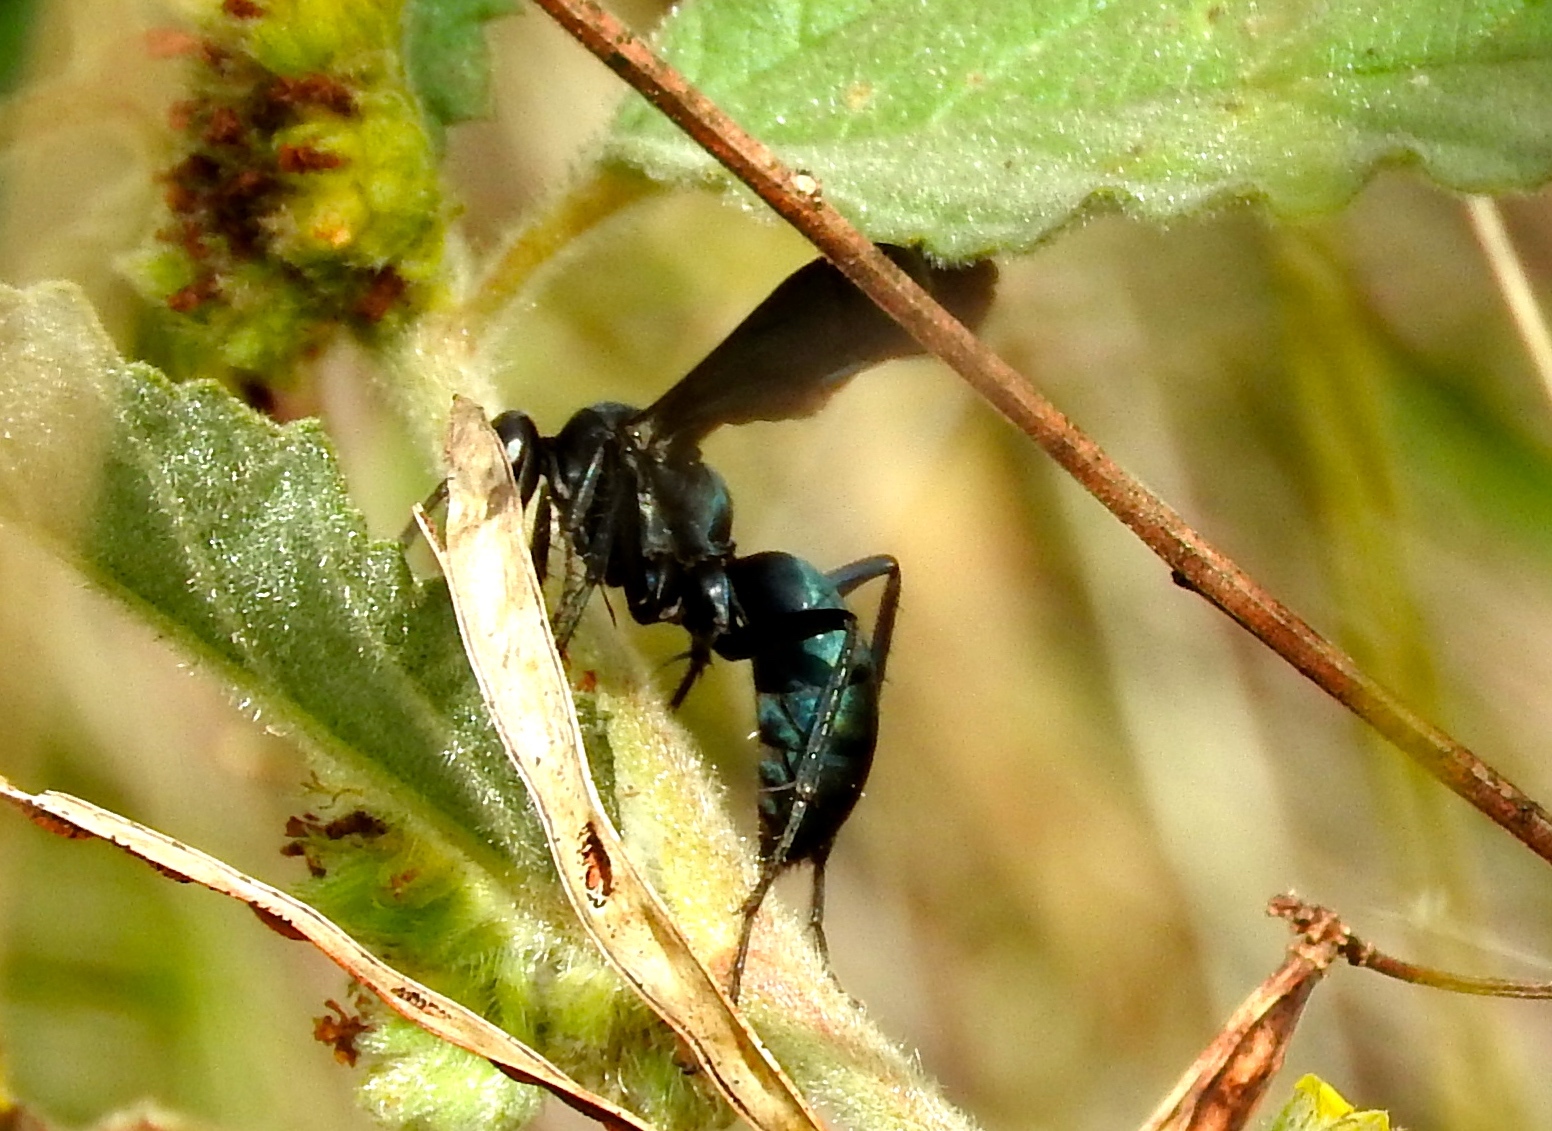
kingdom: Animalia
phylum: Arthropoda
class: Insecta
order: Hymenoptera
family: Pompilidae
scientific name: Pompilidae
